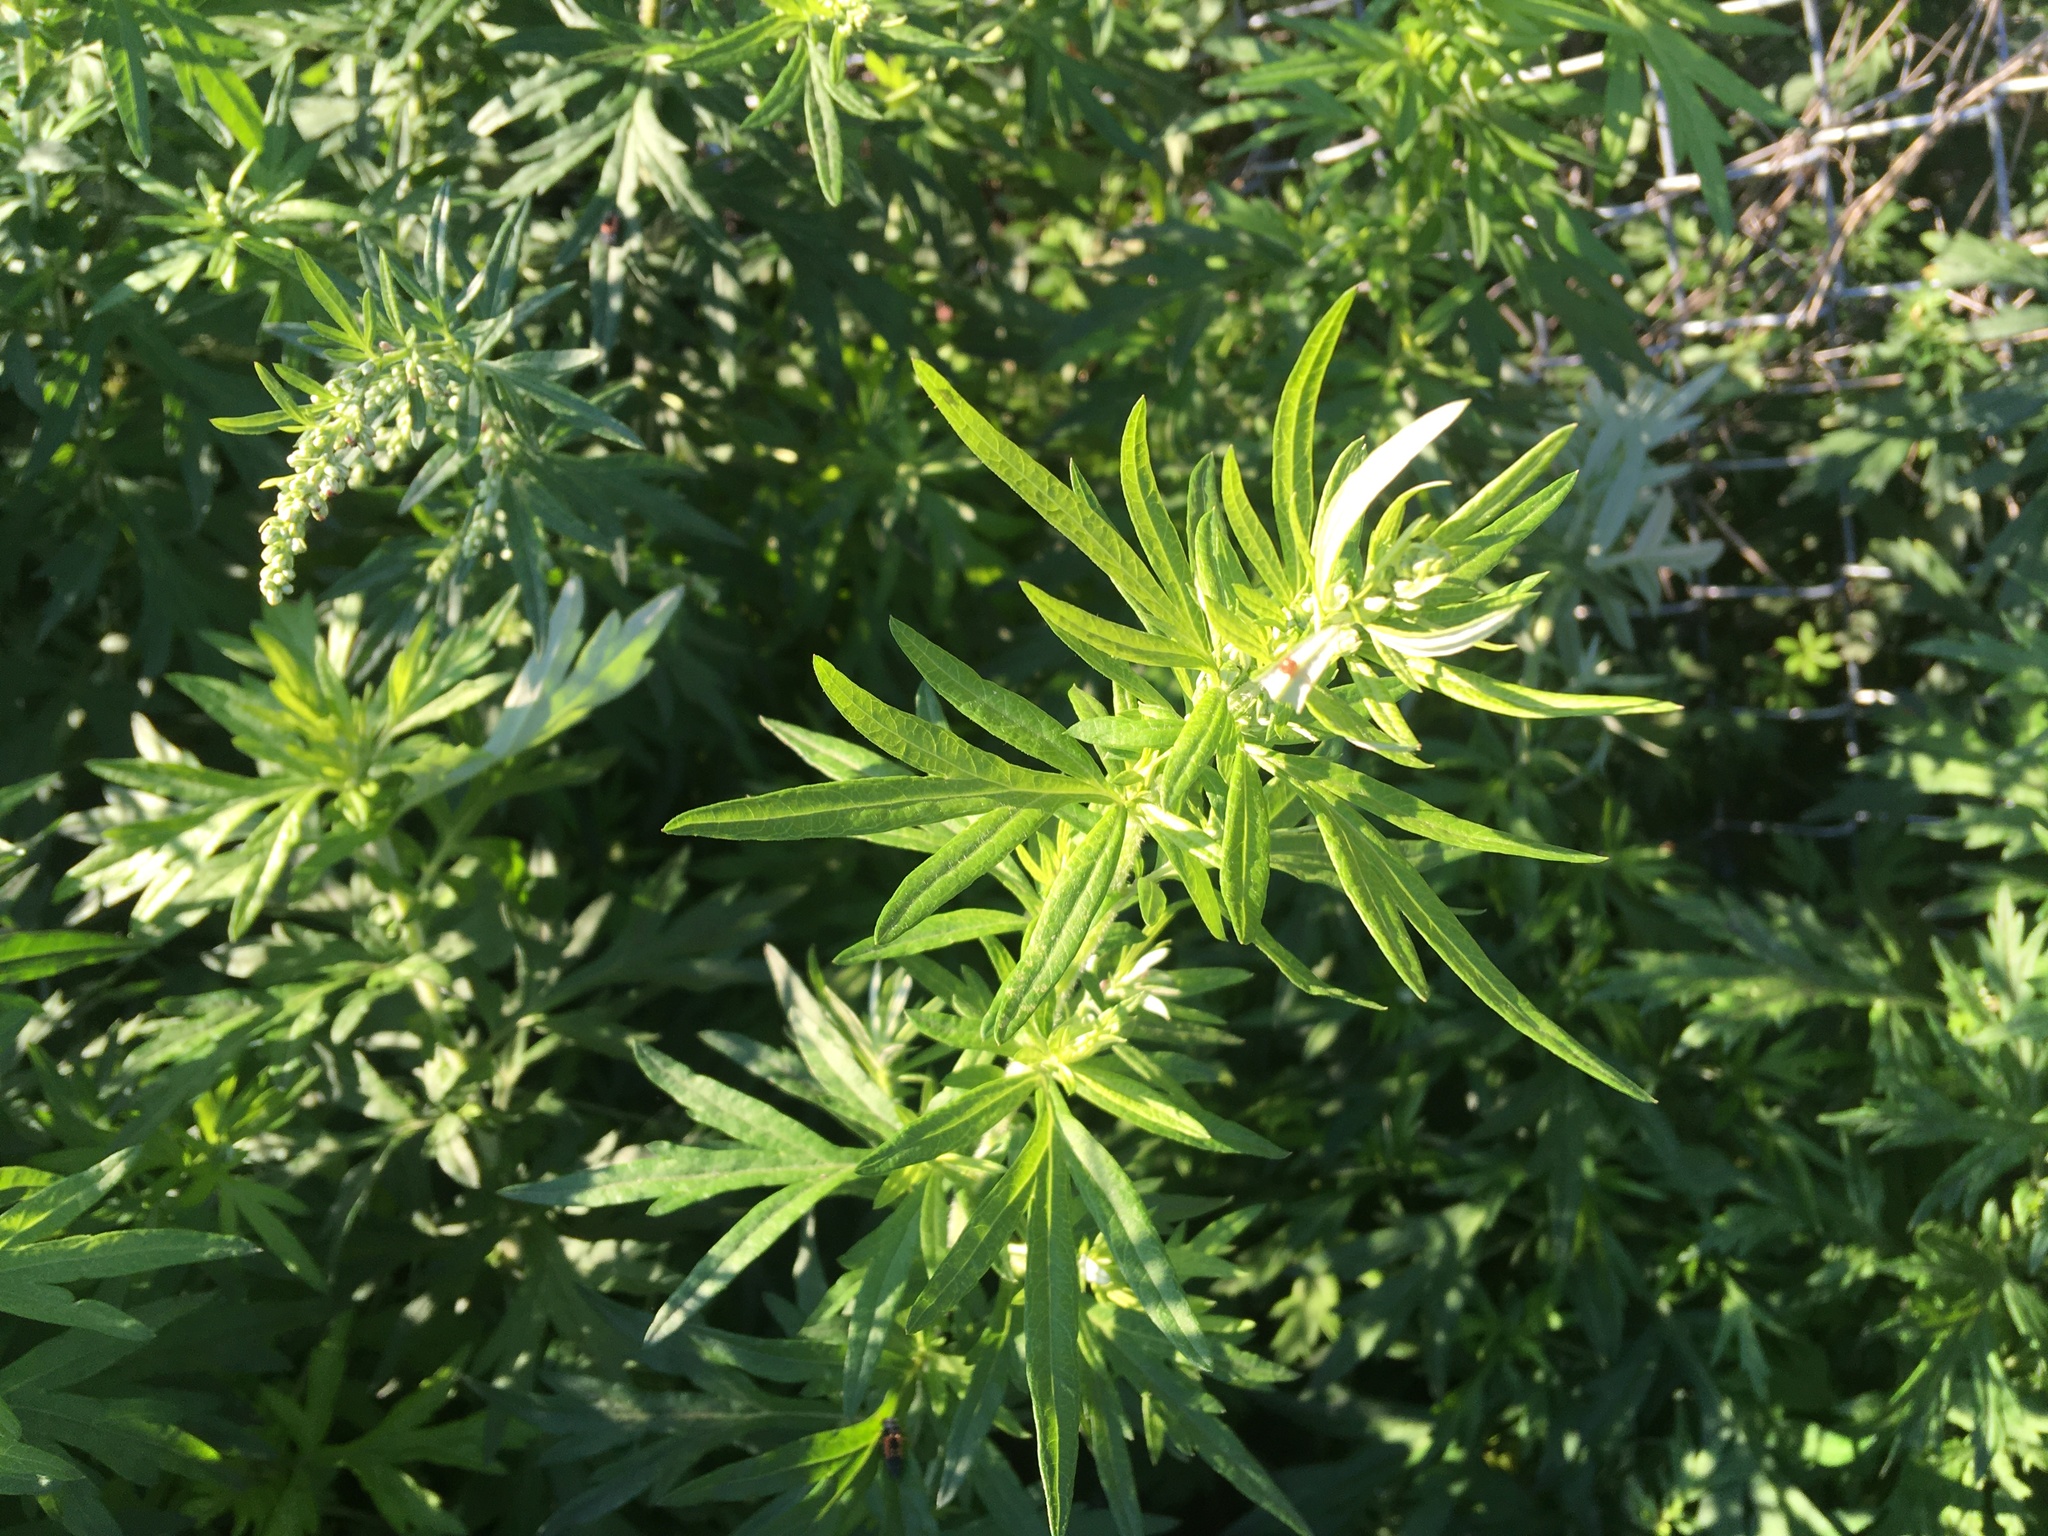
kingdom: Plantae
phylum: Tracheophyta
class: Magnoliopsida
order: Asterales
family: Asteraceae
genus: Artemisia
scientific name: Artemisia vulgaris
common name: Mugwort
